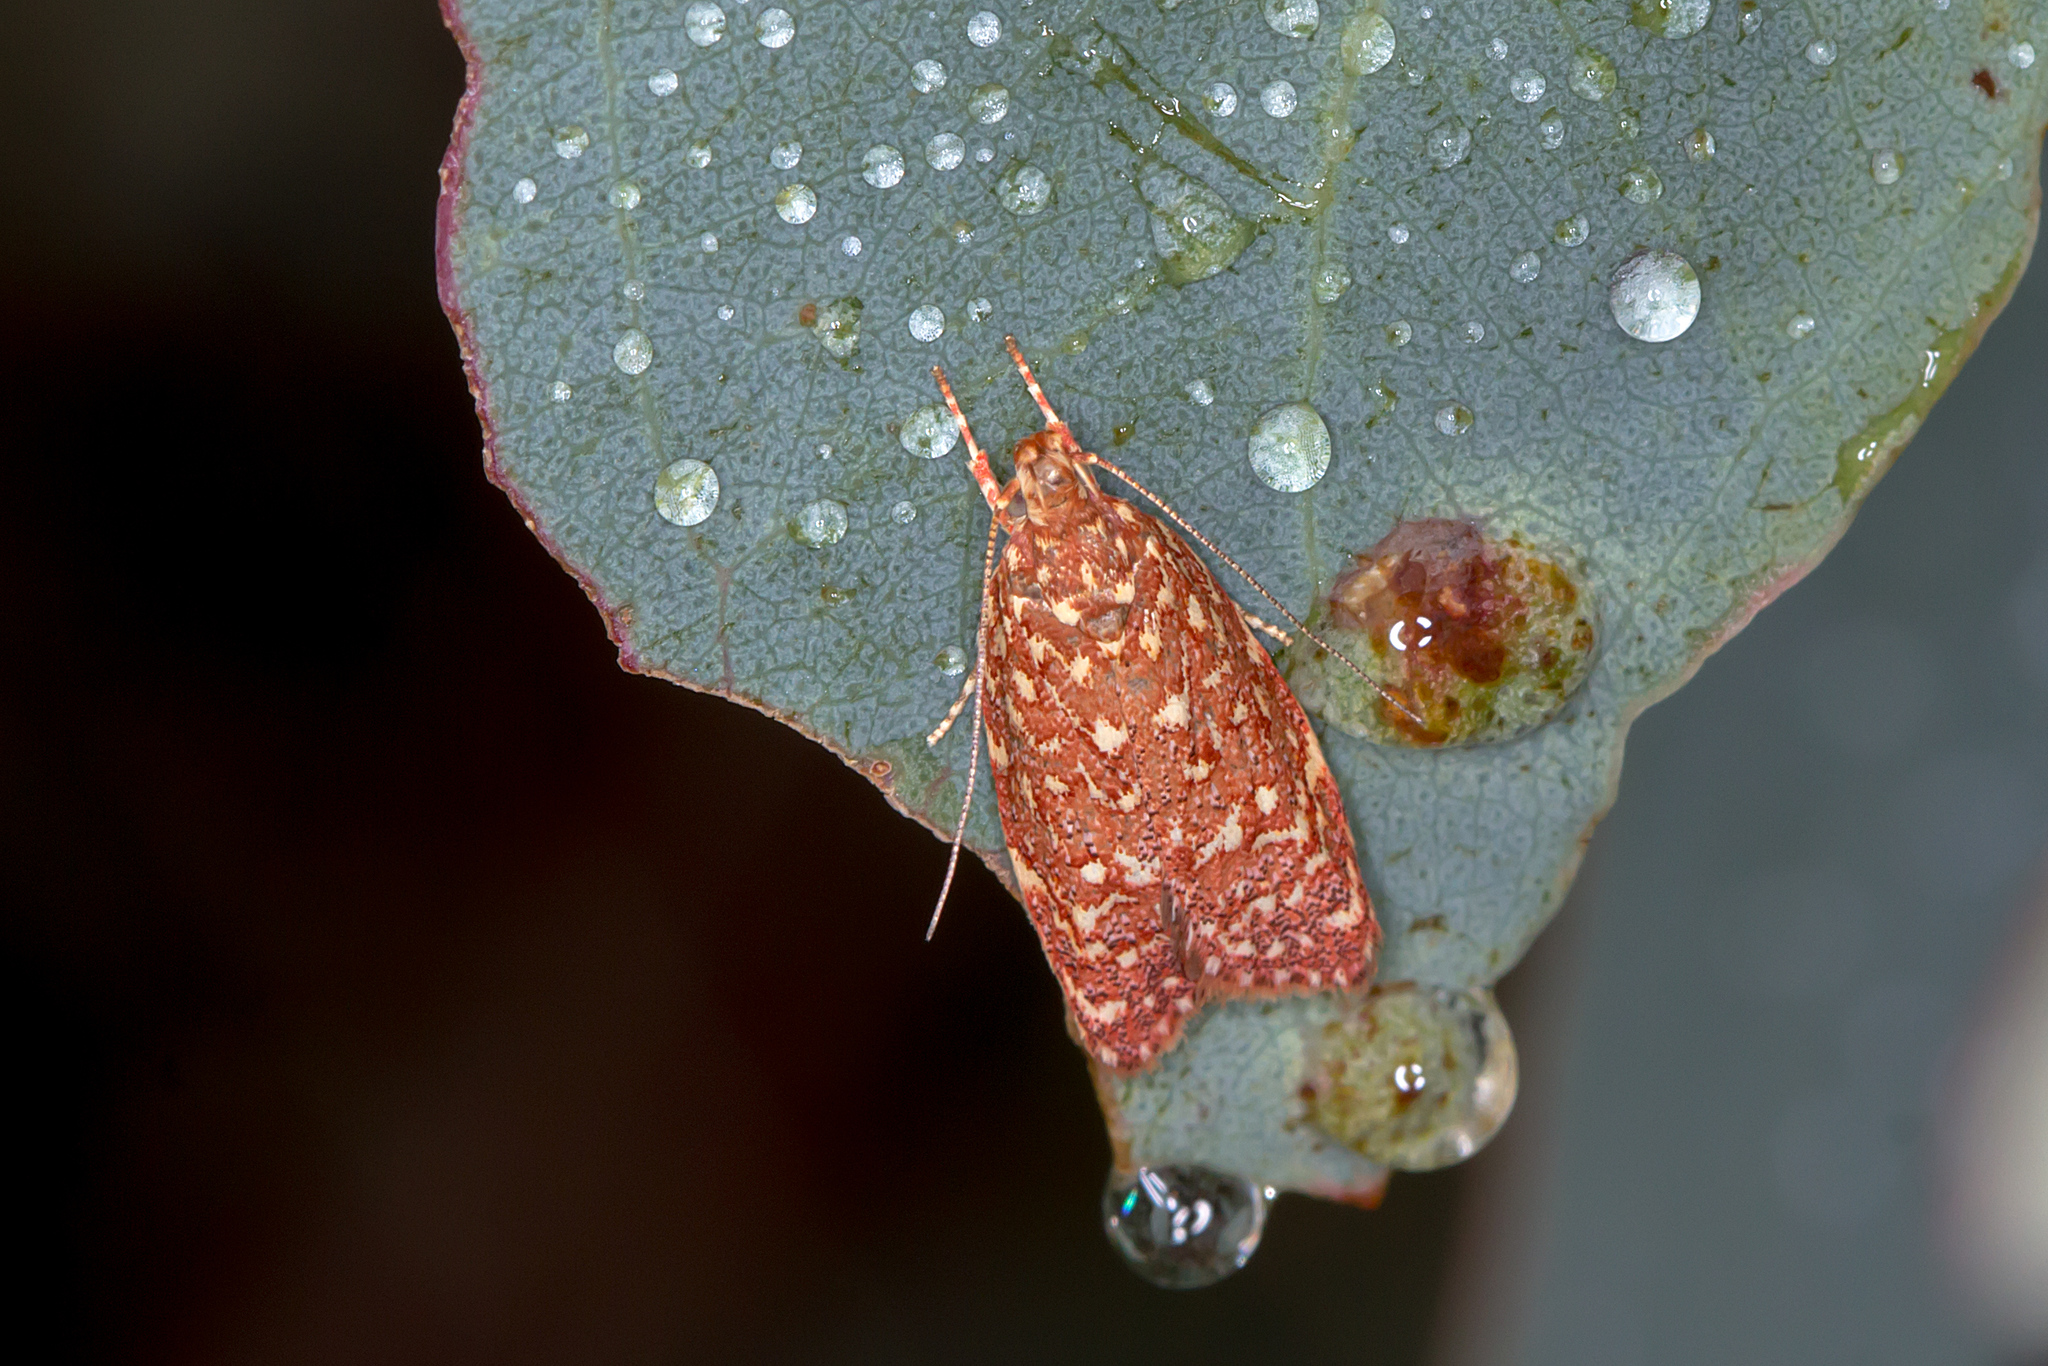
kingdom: Animalia
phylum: Arthropoda
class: Insecta
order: Lepidoptera
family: Oecophoridae
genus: Syringoseca
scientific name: Syringoseca rhodoxantha
